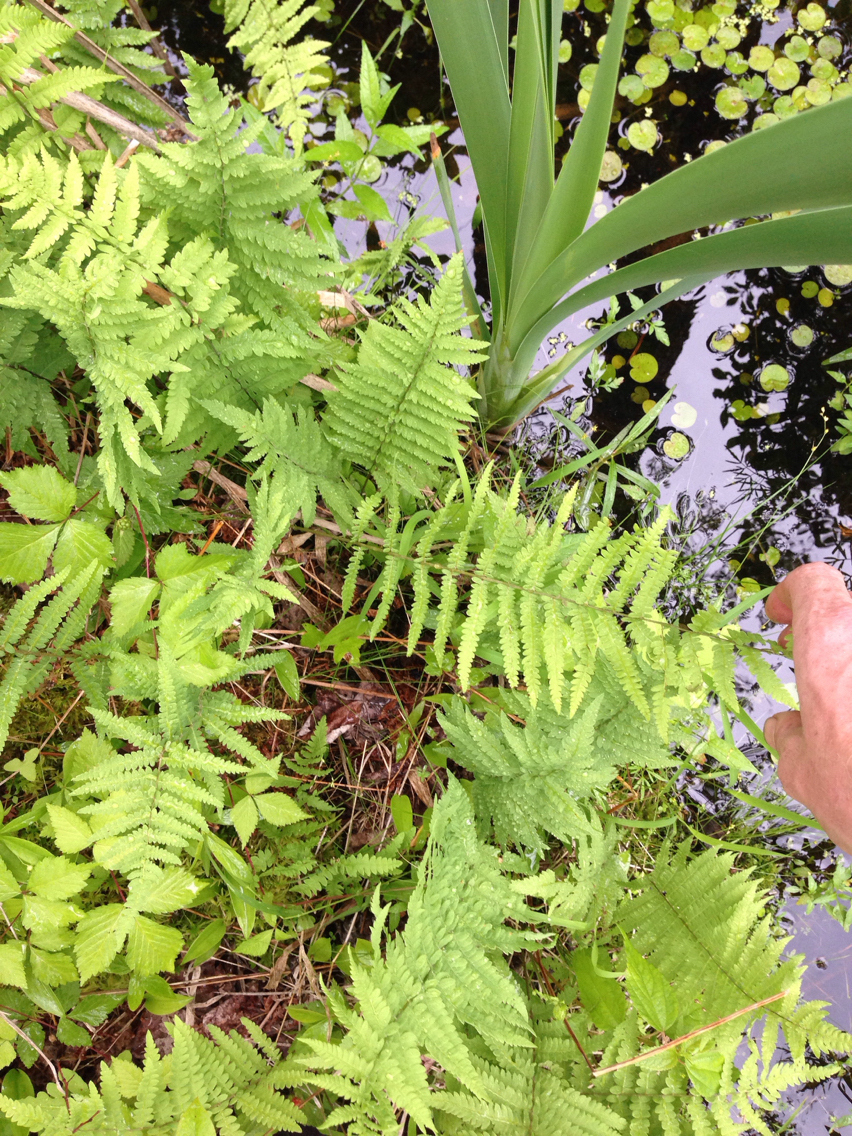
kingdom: Plantae
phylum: Tracheophyta
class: Polypodiopsida
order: Polypodiales
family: Thelypteridaceae
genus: Thelypteris
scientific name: Thelypteris palustris
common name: Marsh fern
